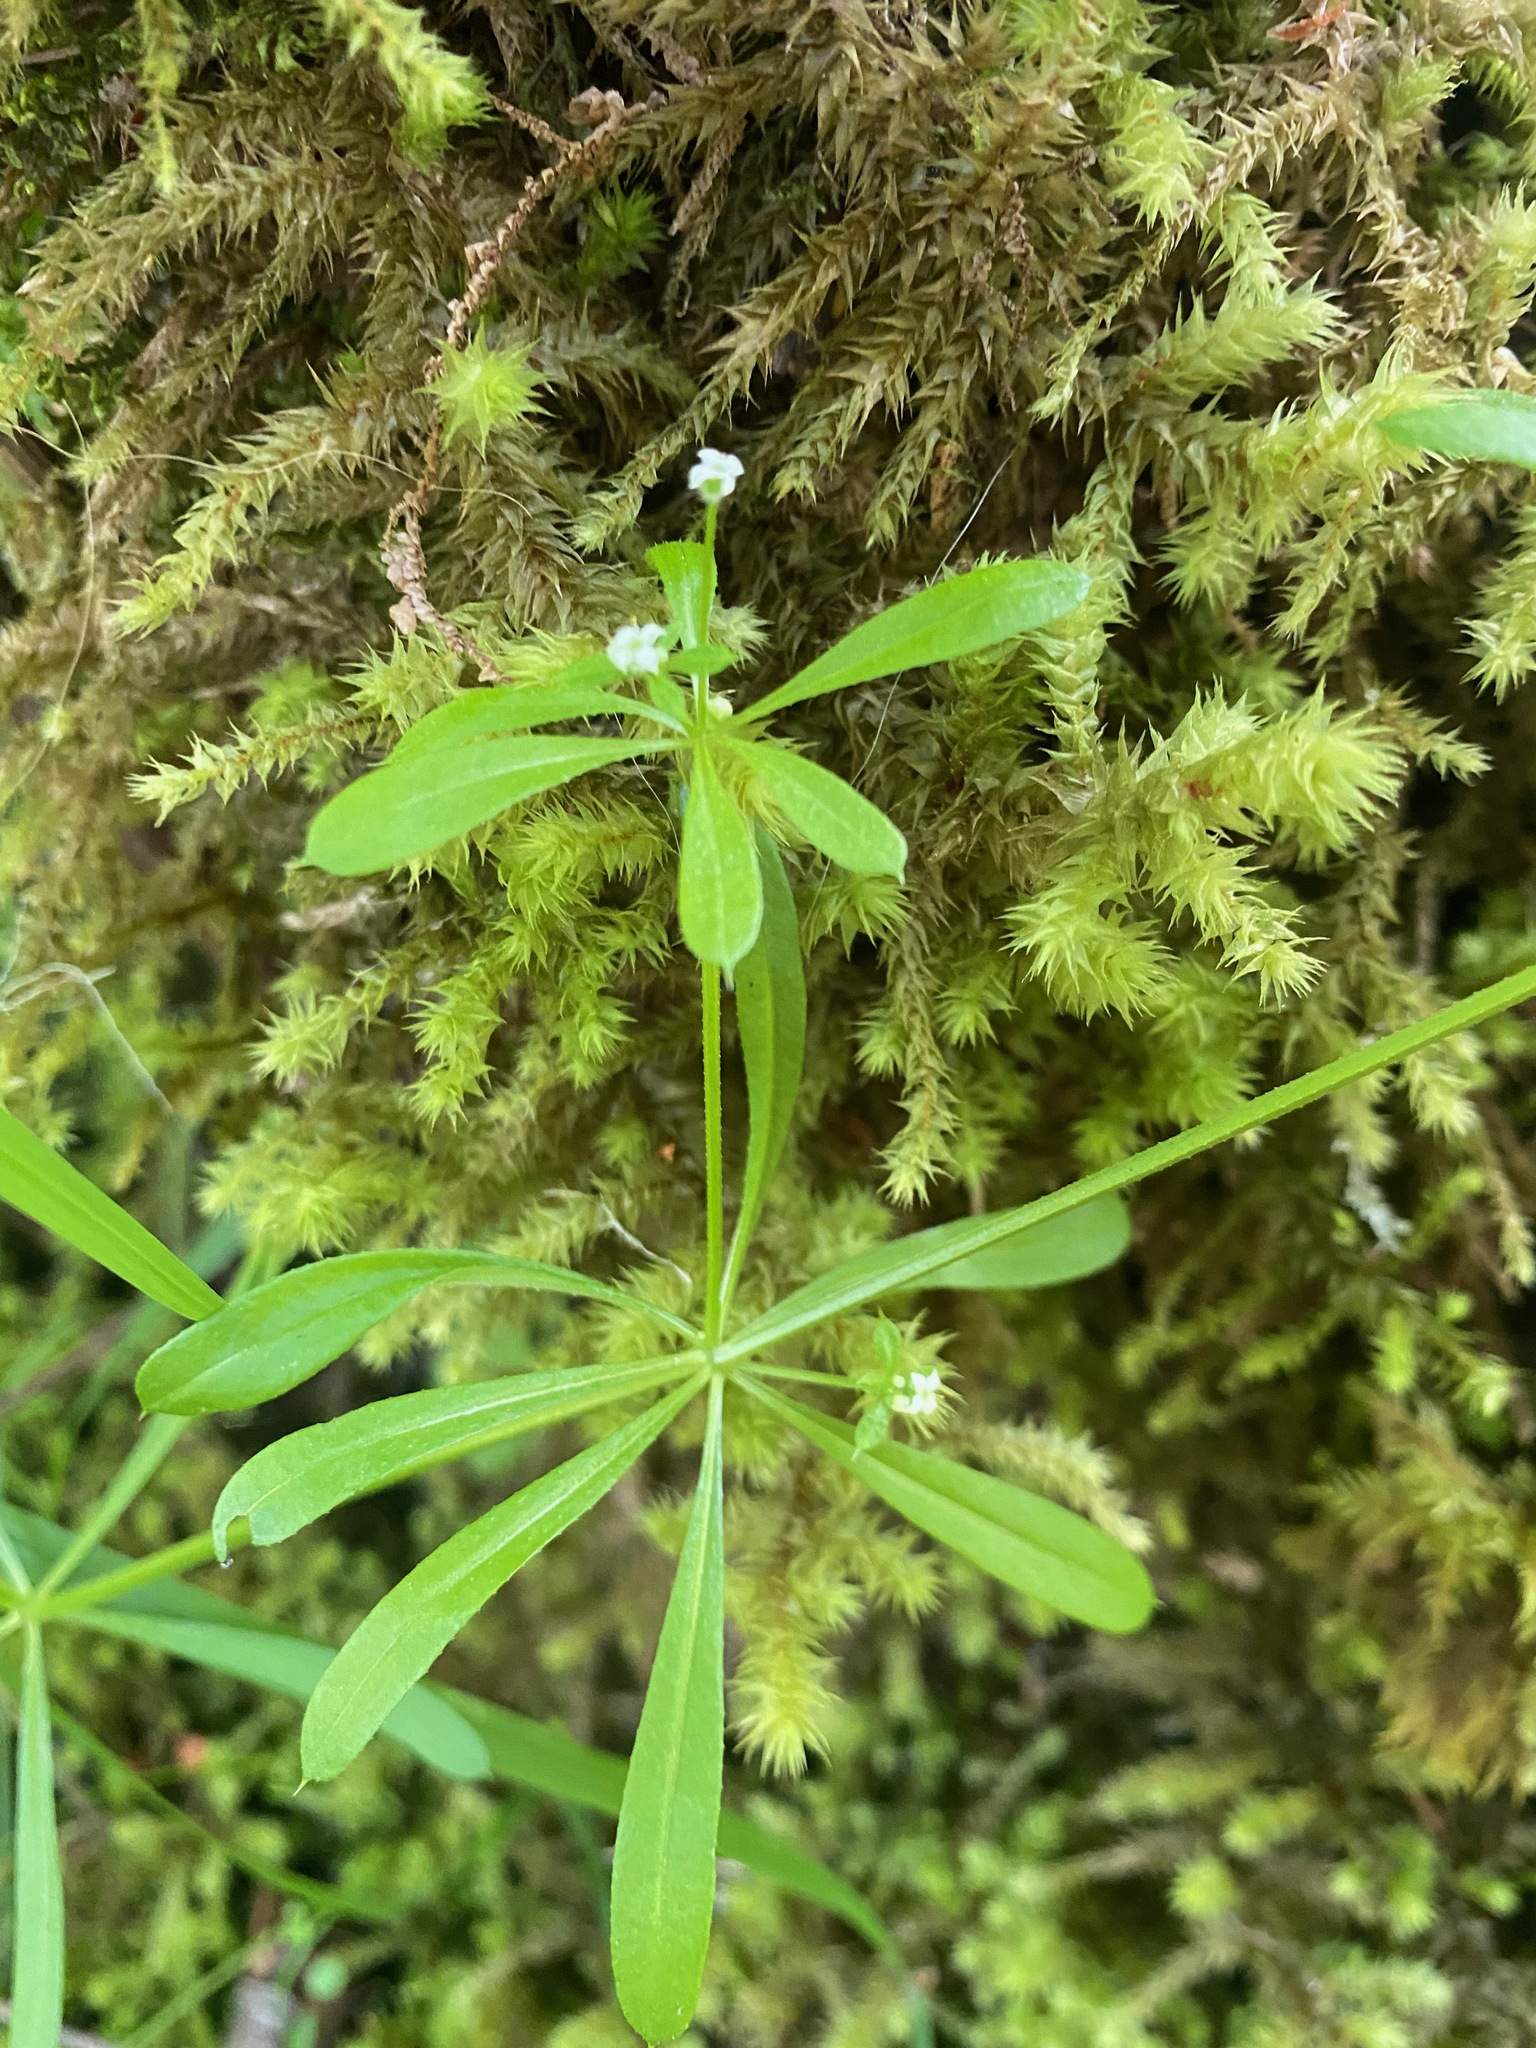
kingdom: Plantae
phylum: Tracheophyta
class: Magnoliopsida
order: Gentianales
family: Rubiaceae
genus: Galium
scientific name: Galium aparine
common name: Cleavers
